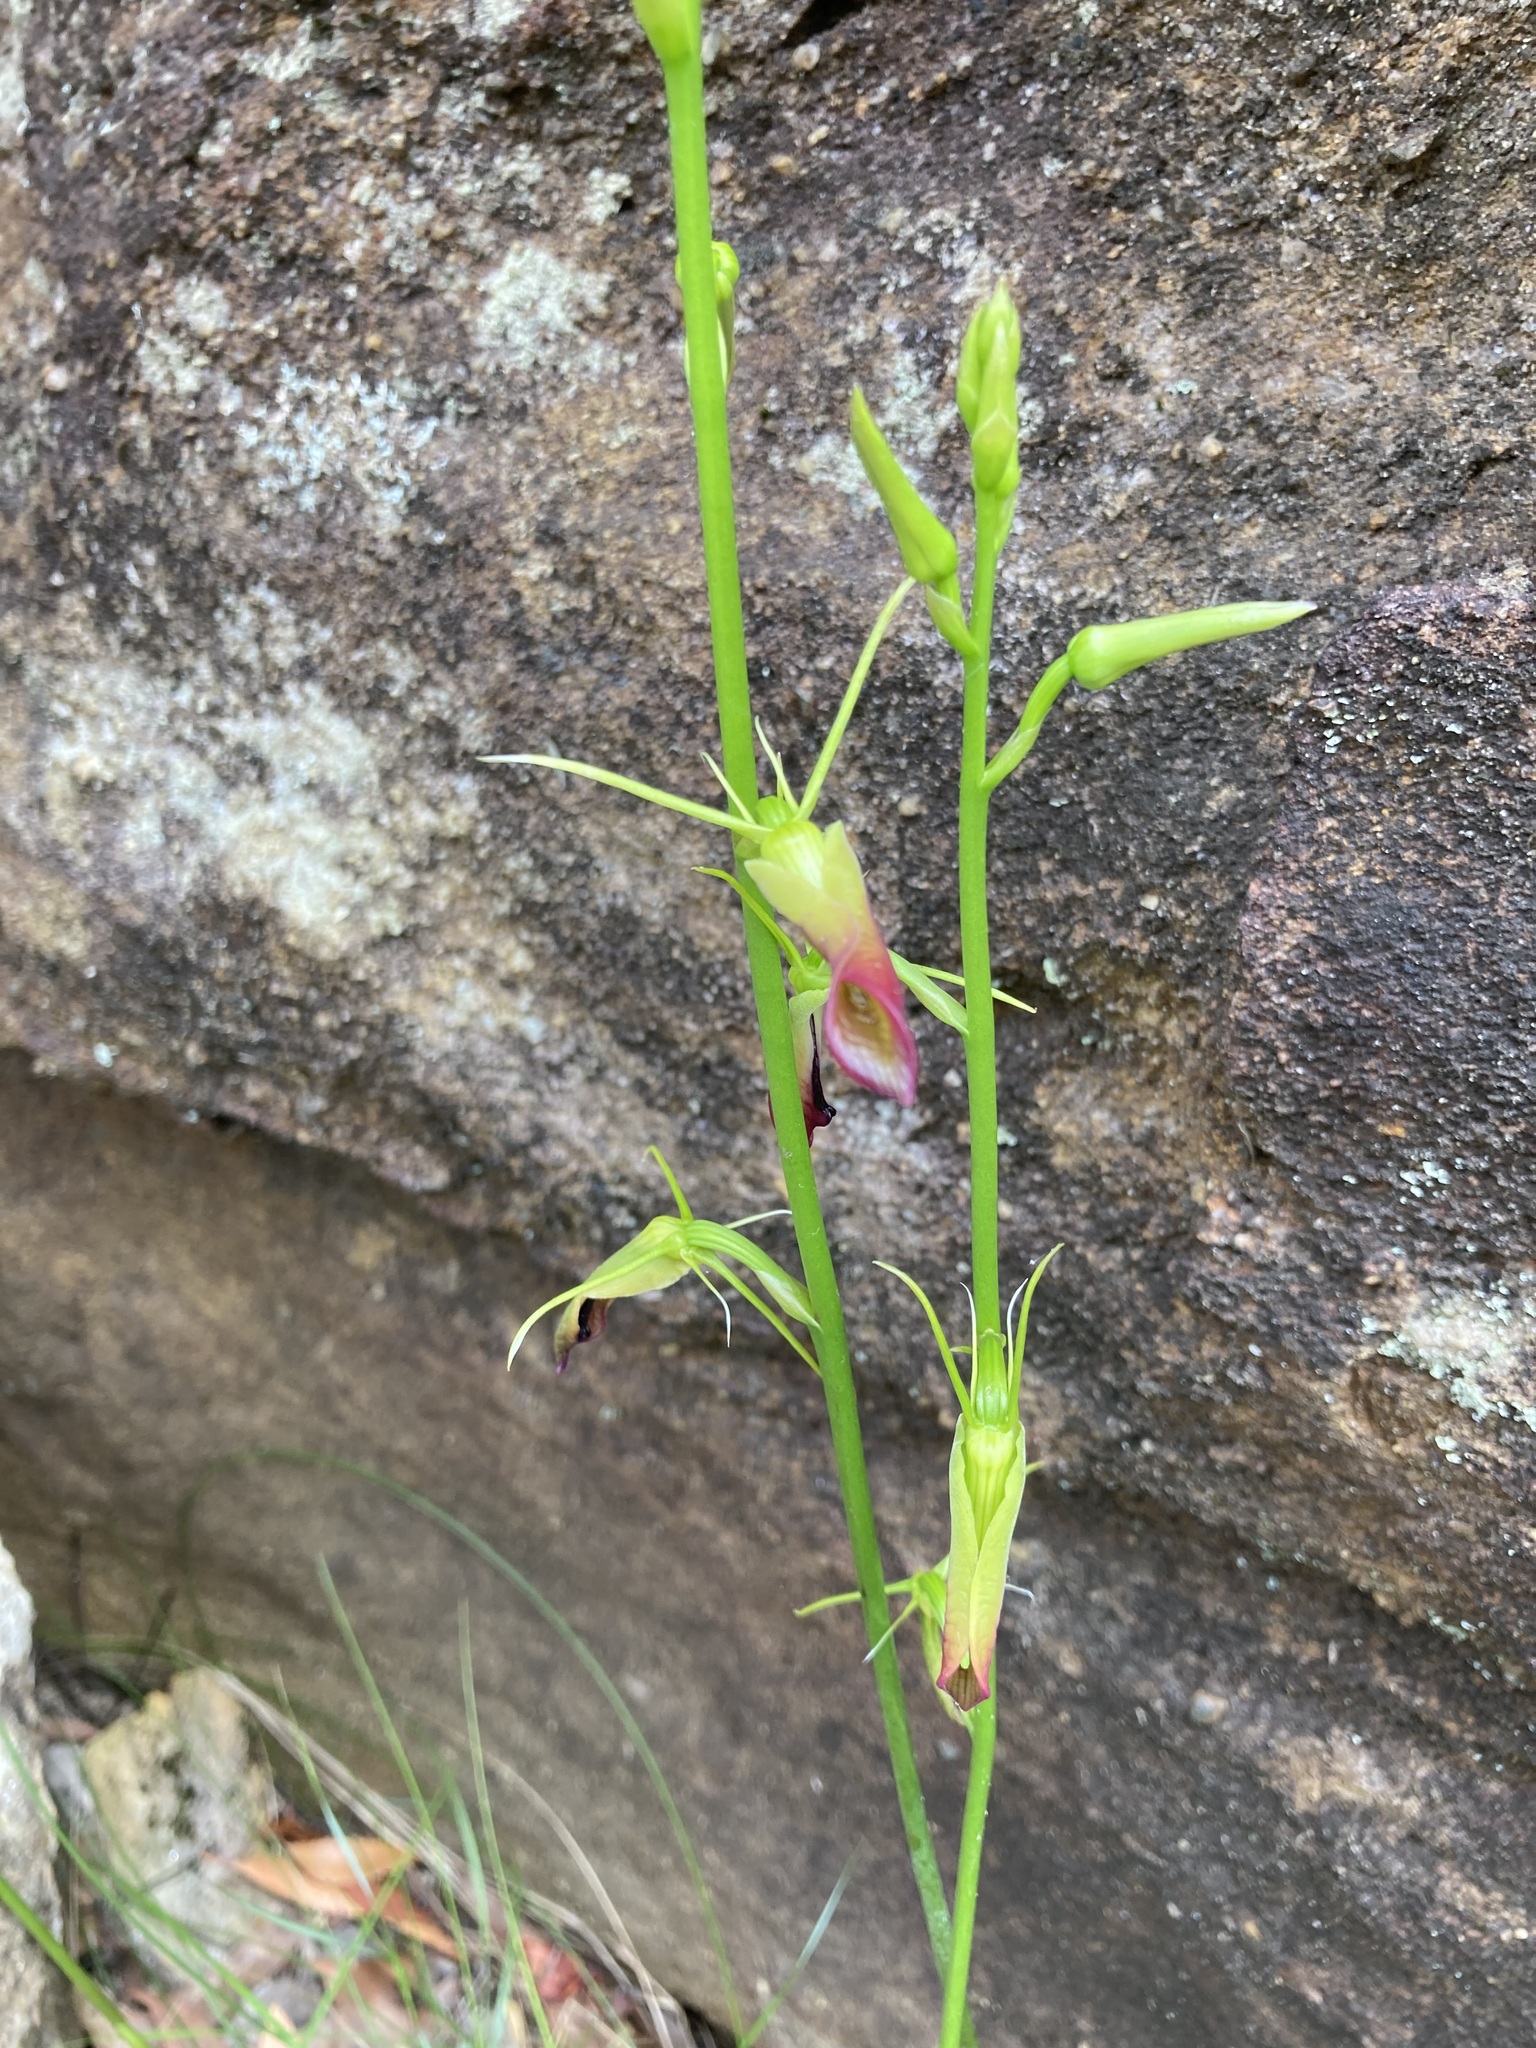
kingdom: Plantae
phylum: Tracheophyta
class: Liliopsida
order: Asparagales
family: Orchidaceae
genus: Cryptostylis
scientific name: Cryptostylis subulata
